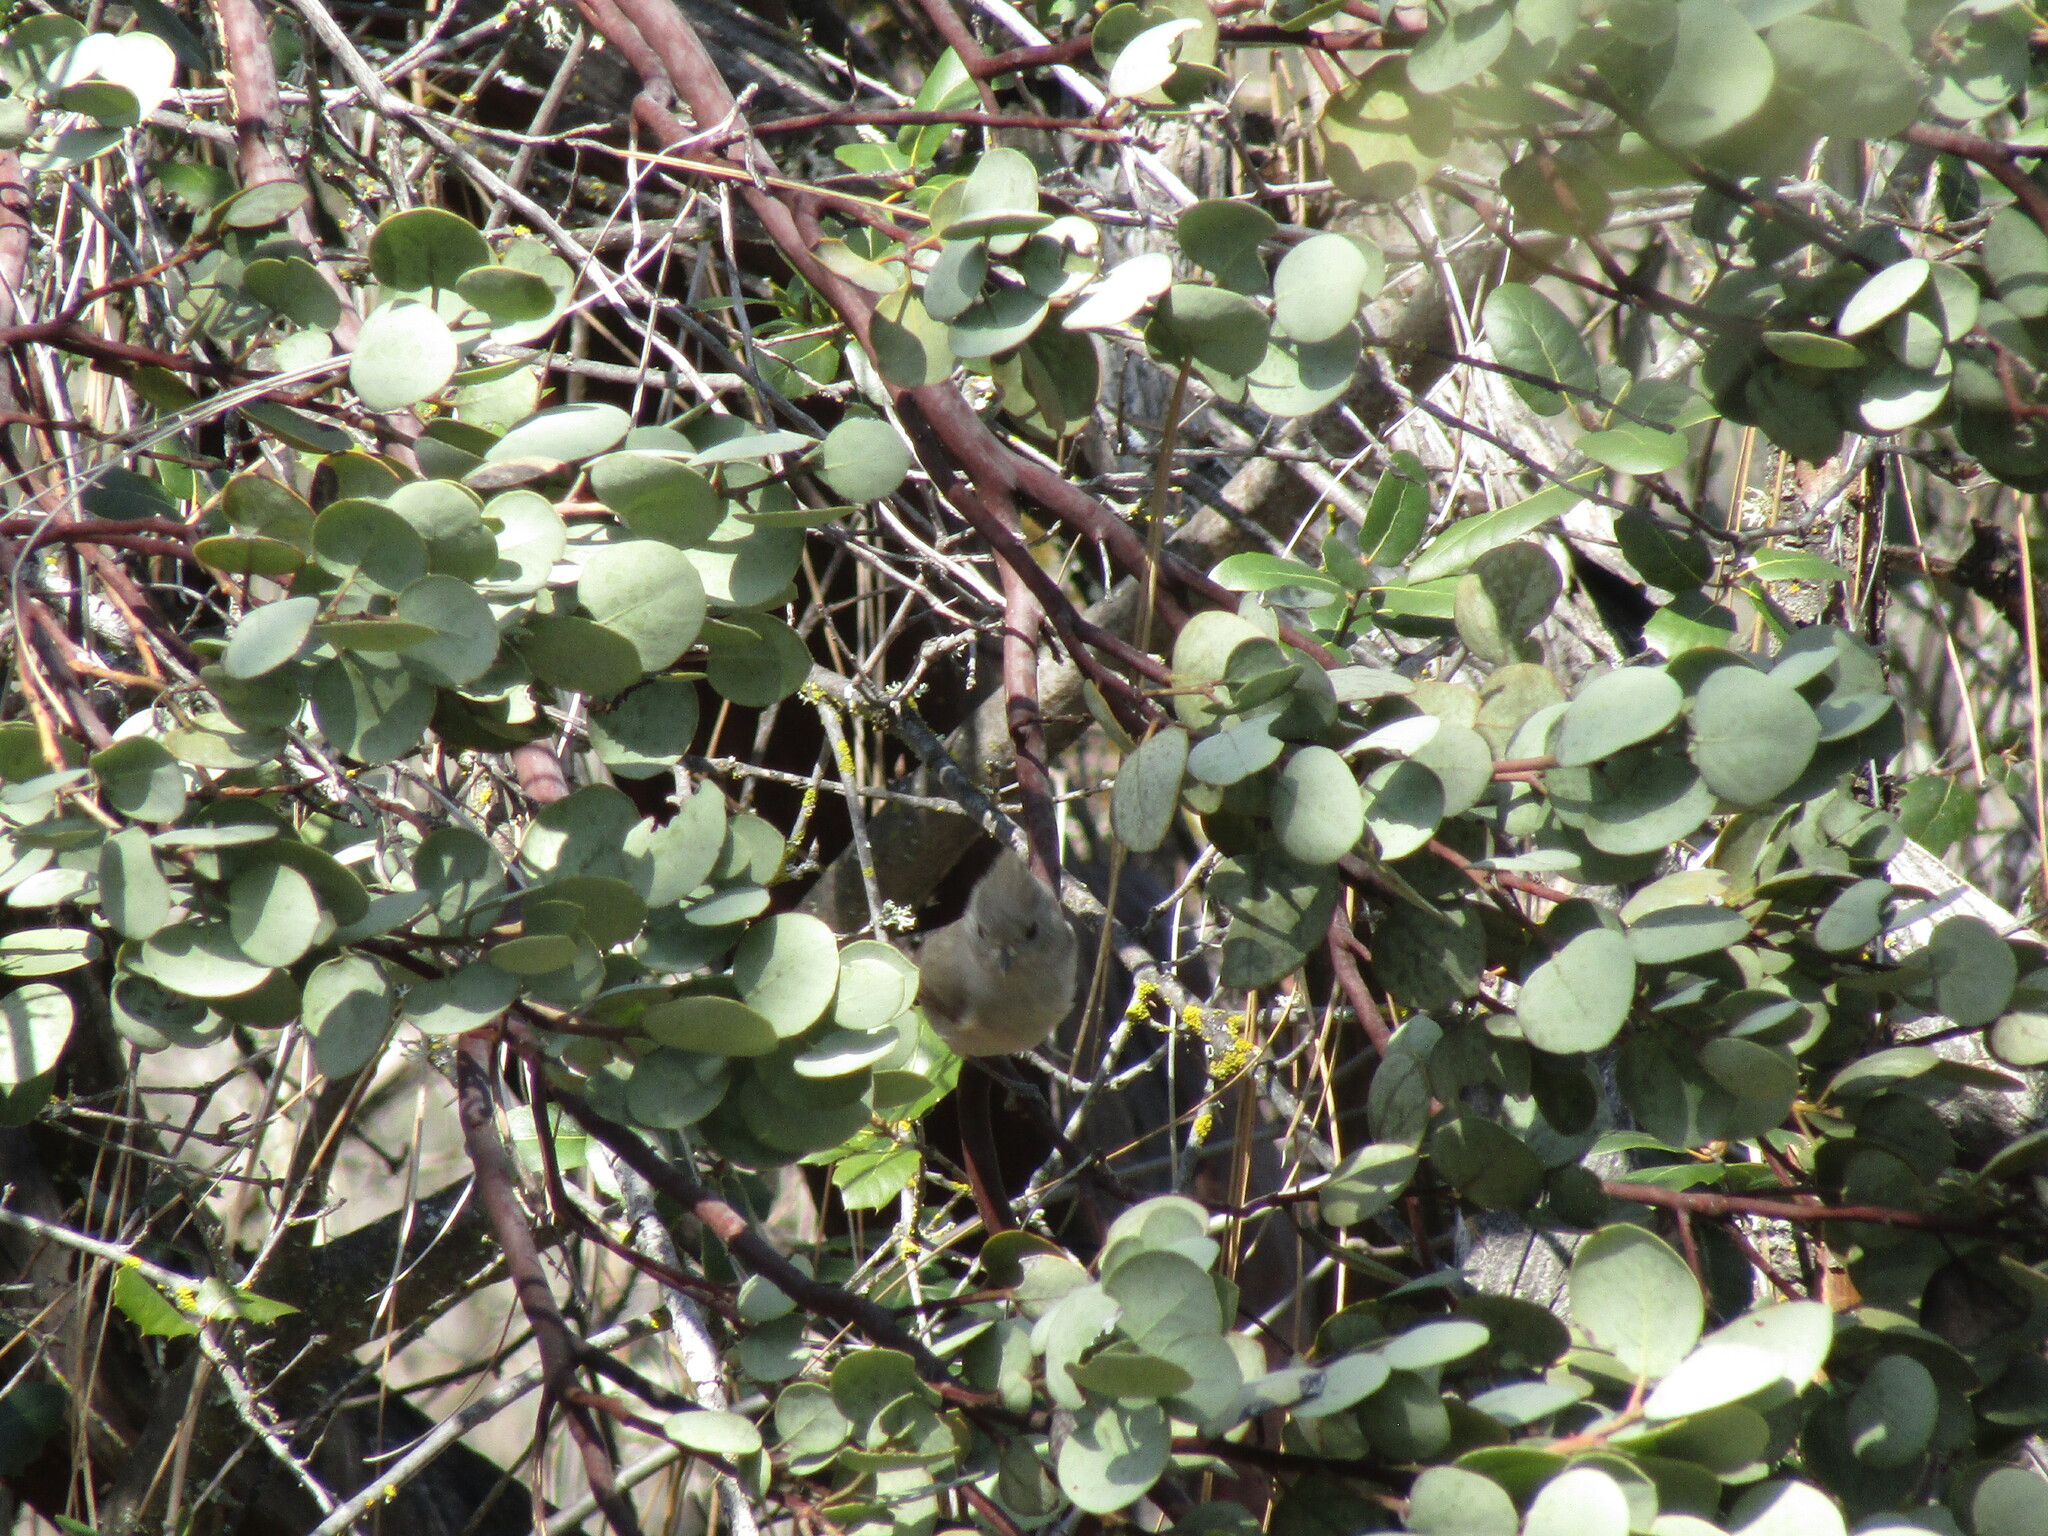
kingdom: Animalia
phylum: Chordata
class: Aves
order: Passeriformes
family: Paridae
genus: Baeolophus
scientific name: Baeolophus inornatus
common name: Oak titmouse
